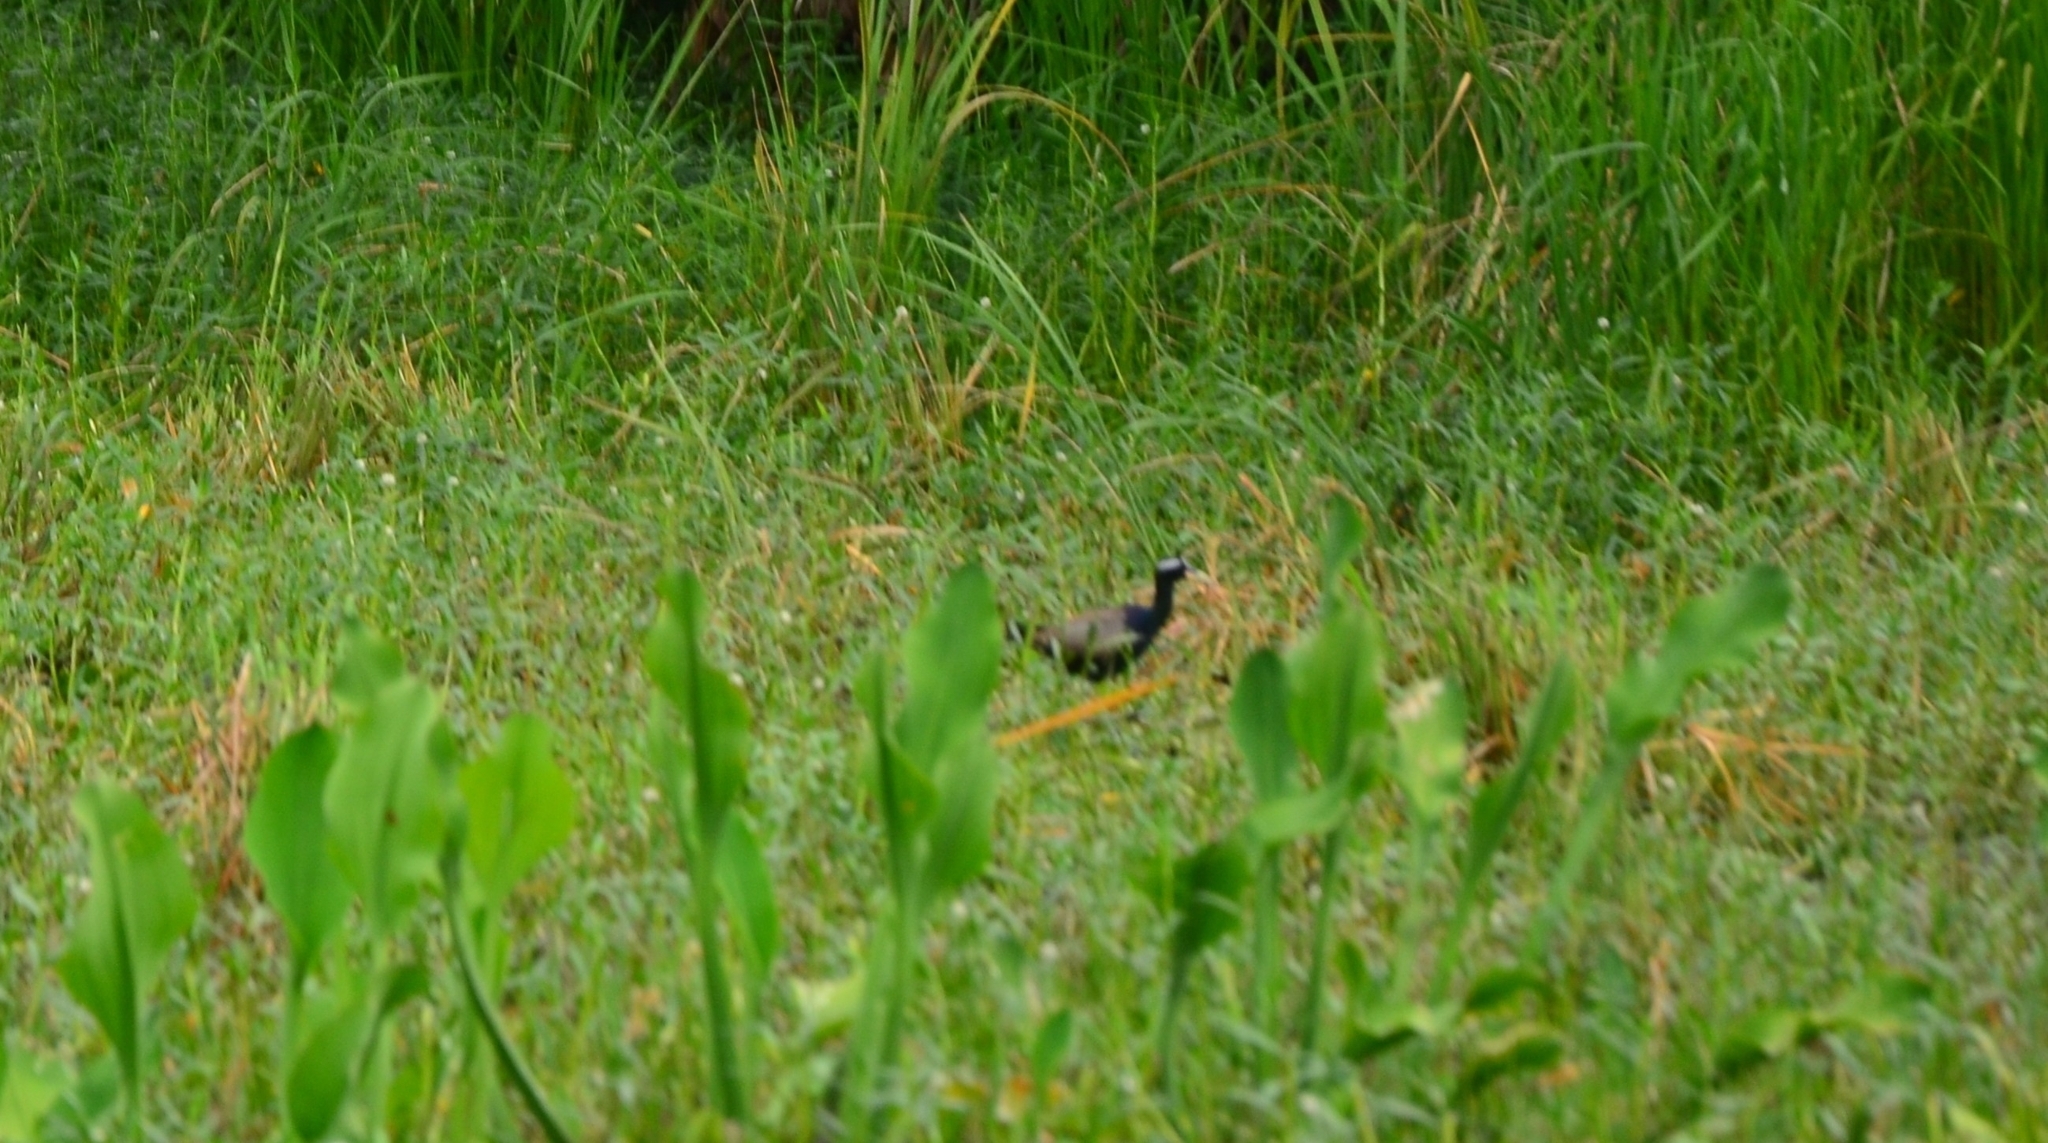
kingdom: Animalia
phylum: Chordata
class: Aves
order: Charadriiformes
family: Jacanidae
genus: Metopidius
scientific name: Metopidius indicus
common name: Bronze-winged jacana
